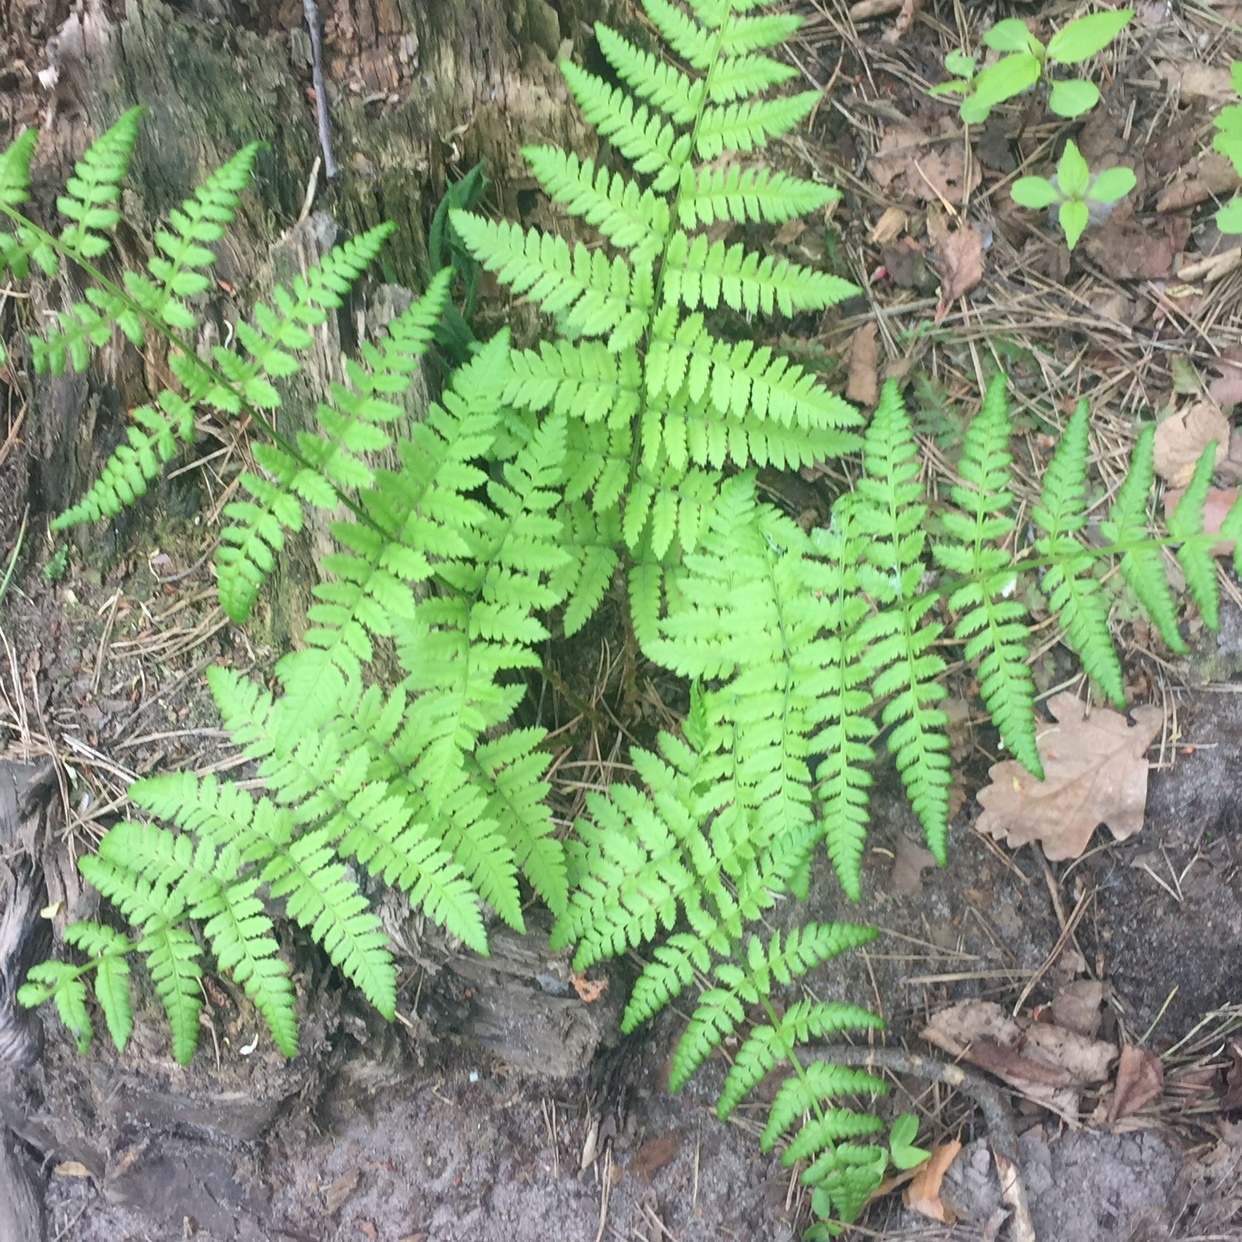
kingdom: Plantae
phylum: Tracheophyta
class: Polypodiopsida
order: Polypodiales
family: Dryopteridaceae
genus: Dryopteris
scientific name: Dryopteris carthusiana
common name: Narrow buckler-fern
